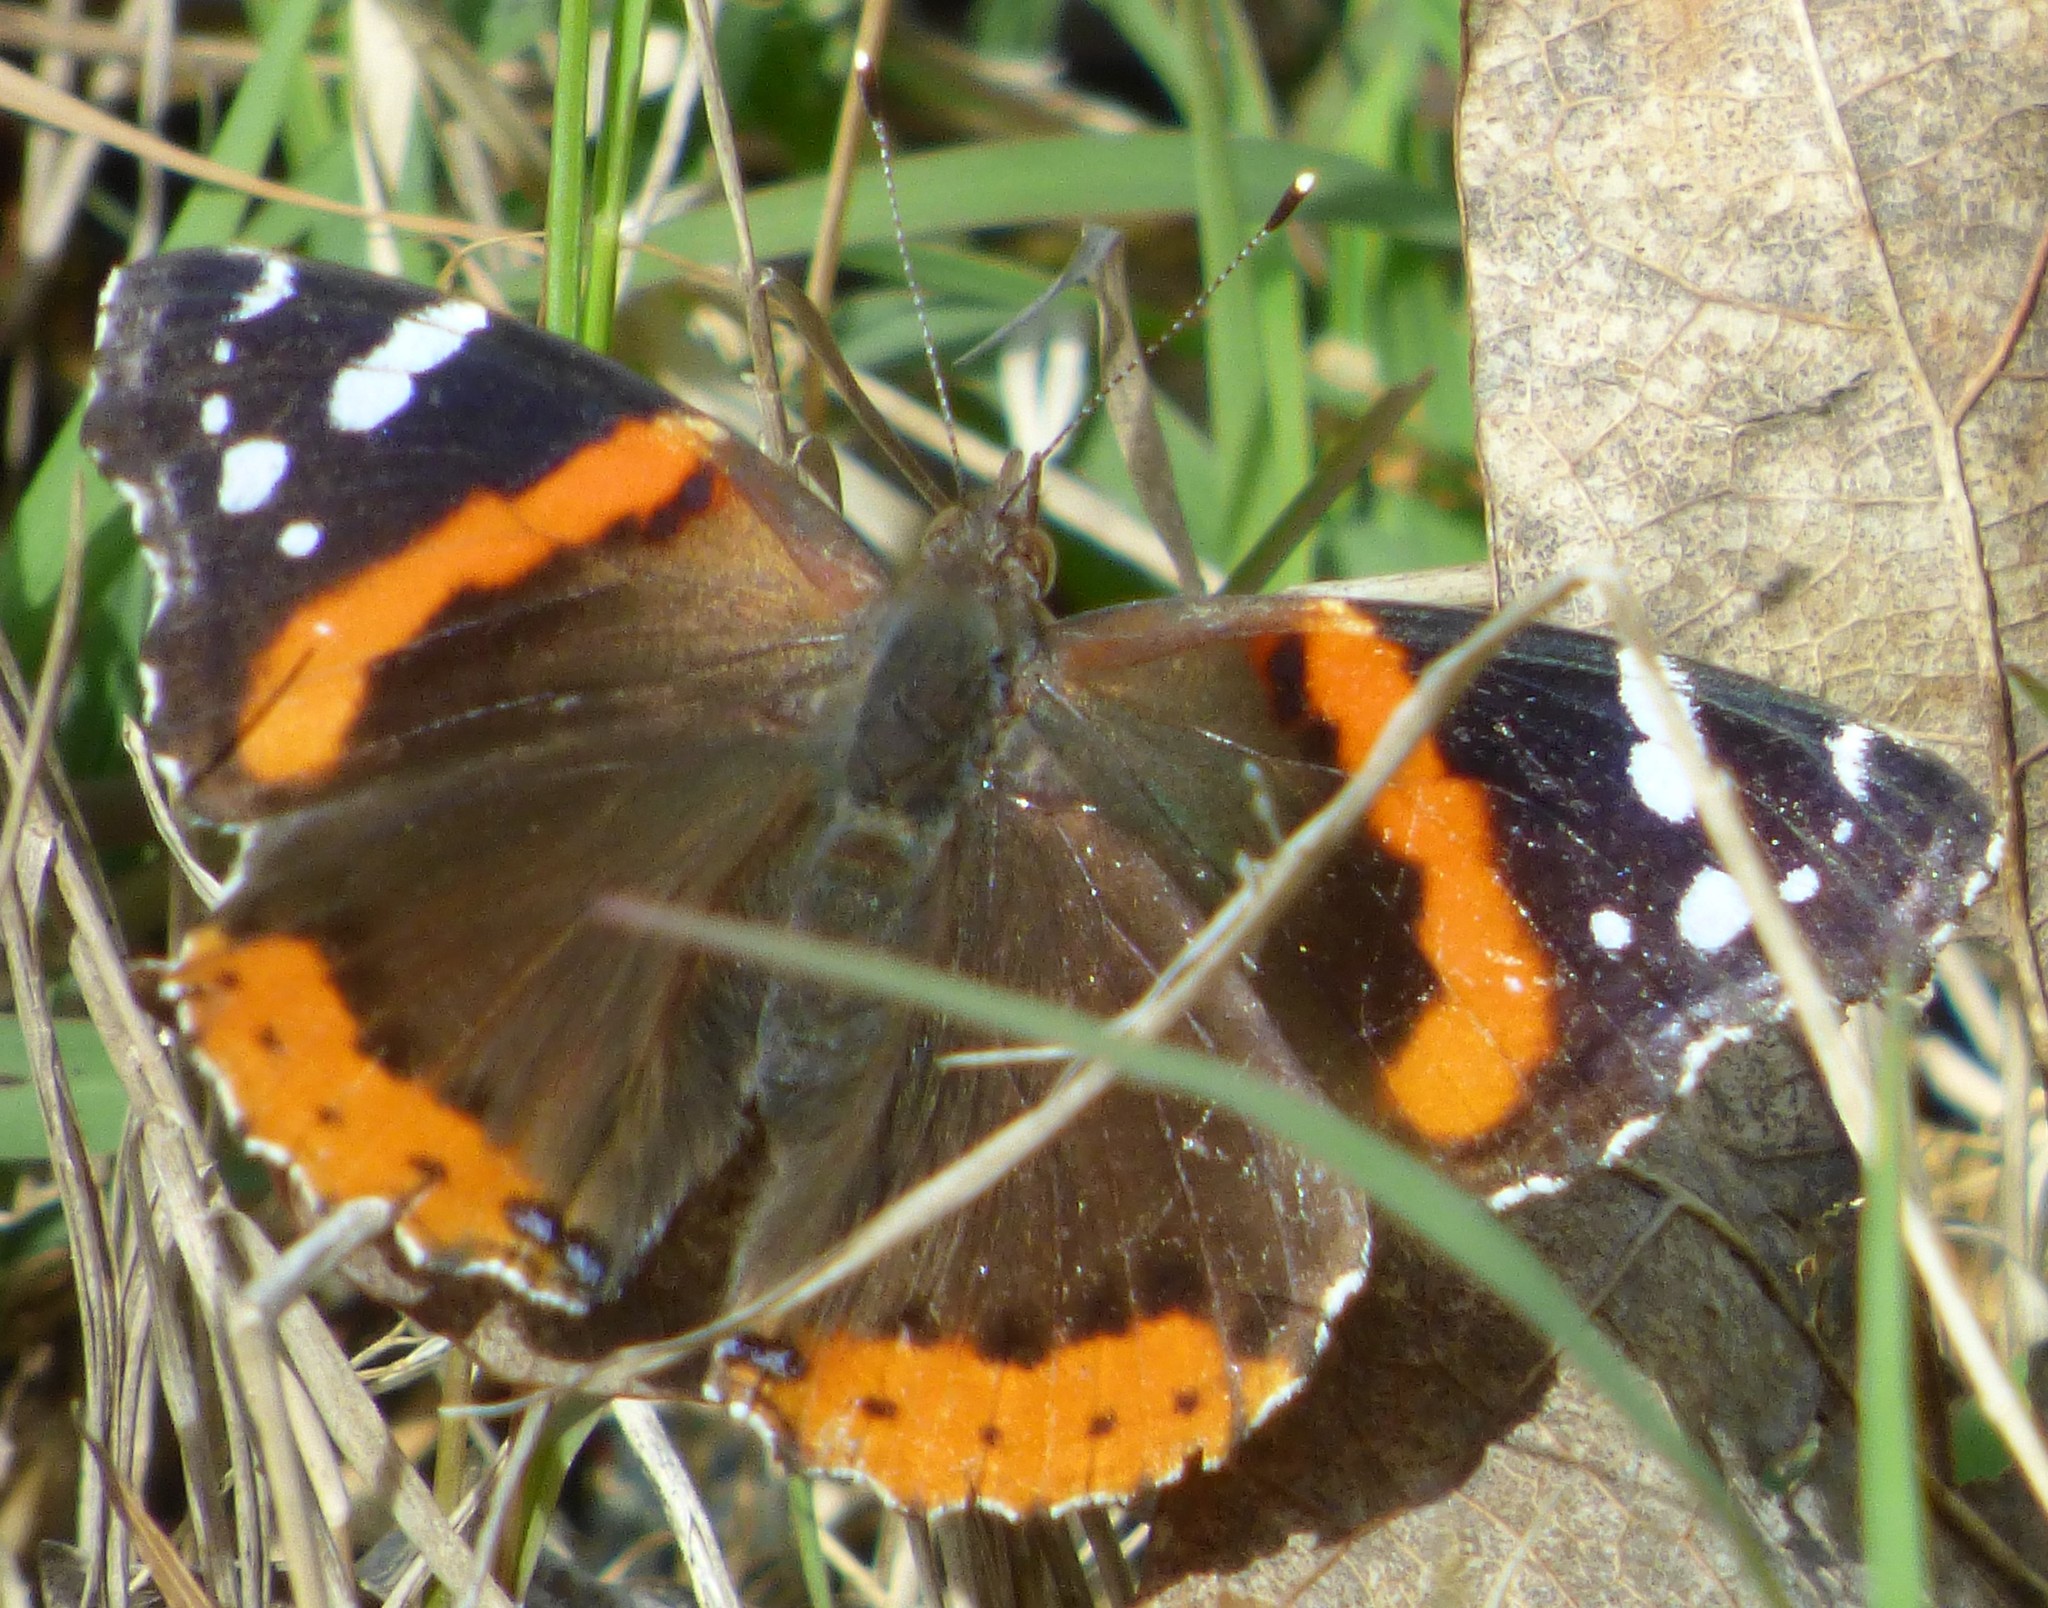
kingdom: Animalia
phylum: Arthropoda
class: Insecta
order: Lepidoptera
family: Nymphalidae
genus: Vanessa
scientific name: Vanessa atalanta
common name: Red admiral
